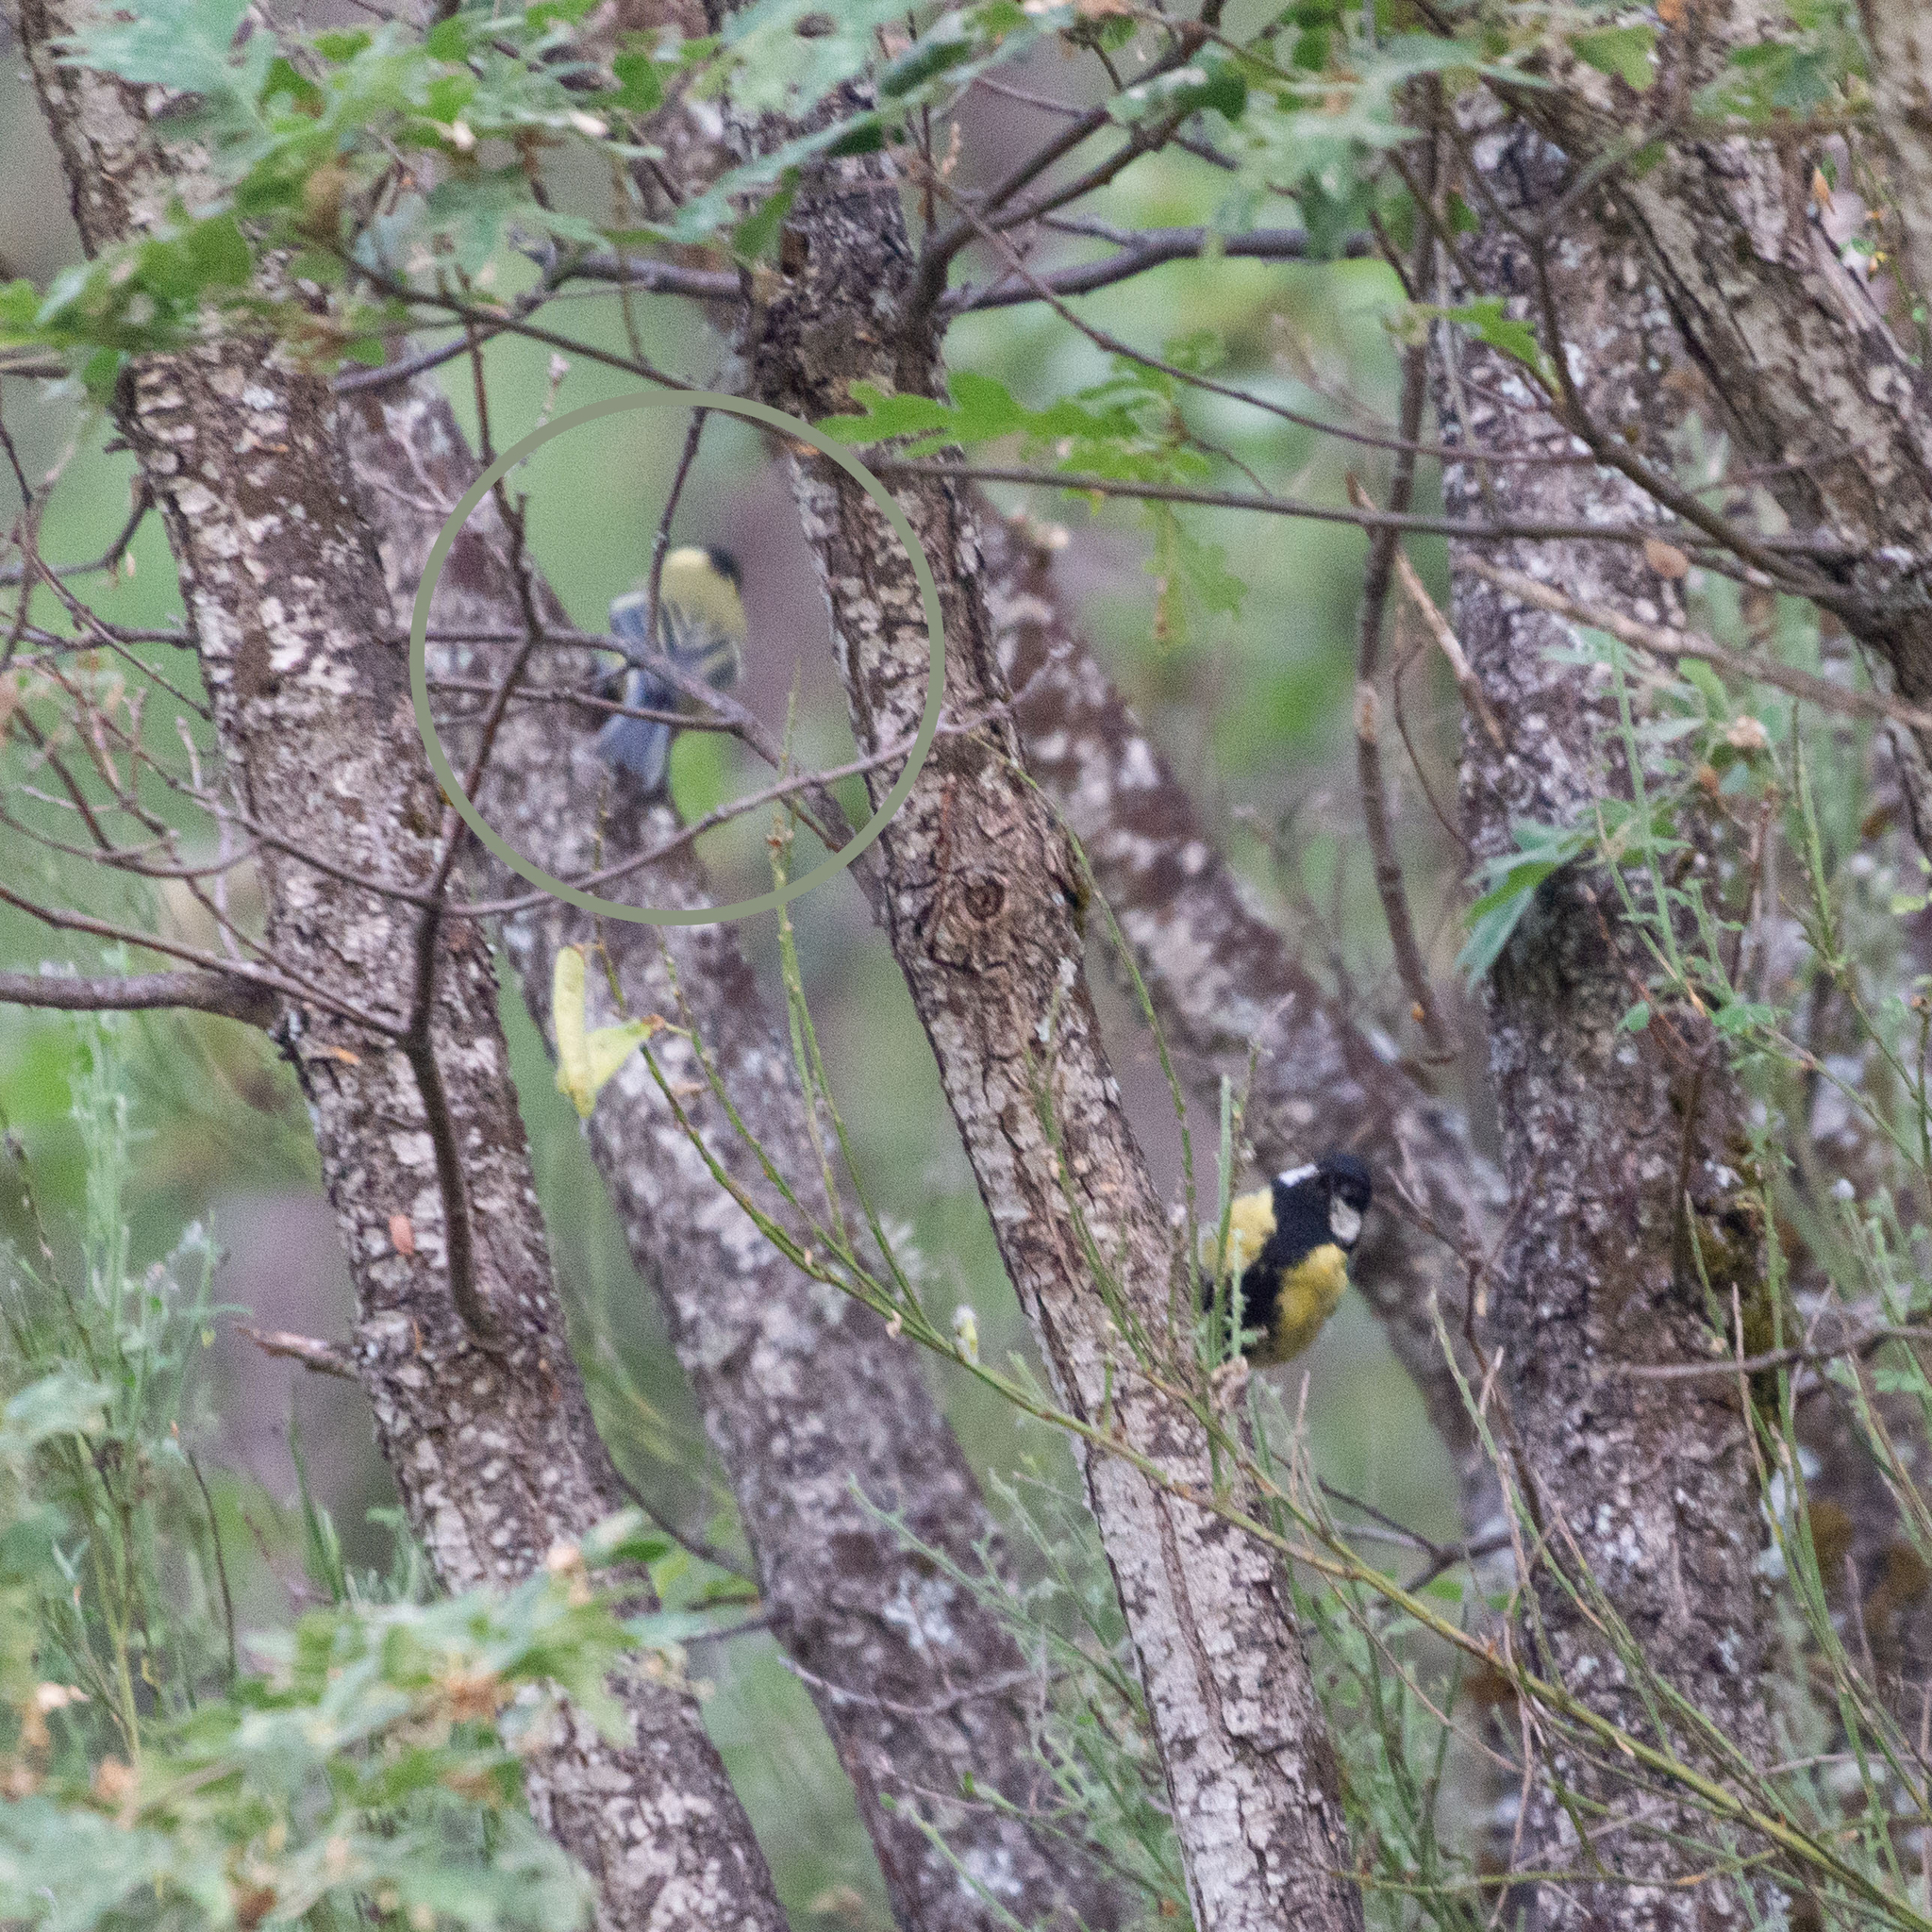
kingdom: Animalia
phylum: Chordata
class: Aves
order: Passeriformes
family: Paridae
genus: Parus
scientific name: Parus major
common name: Great tit
